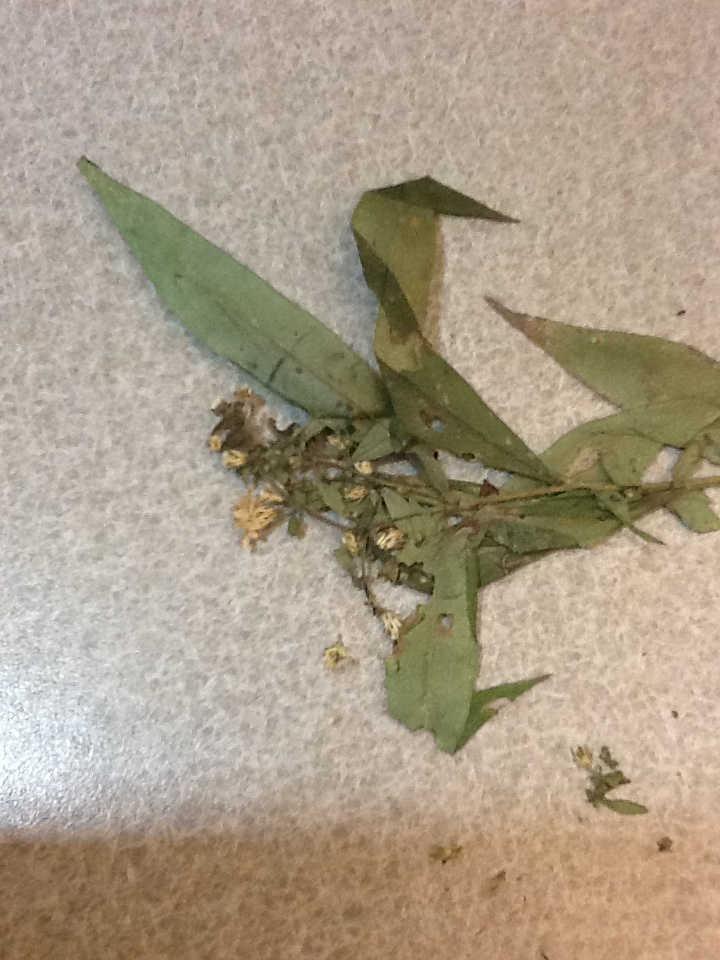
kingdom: Plantae
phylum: Tracheophyta
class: Magnoliopsida
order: Asterales
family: Asteraceae
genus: Symphyotrichum
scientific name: Symphyotrichum
